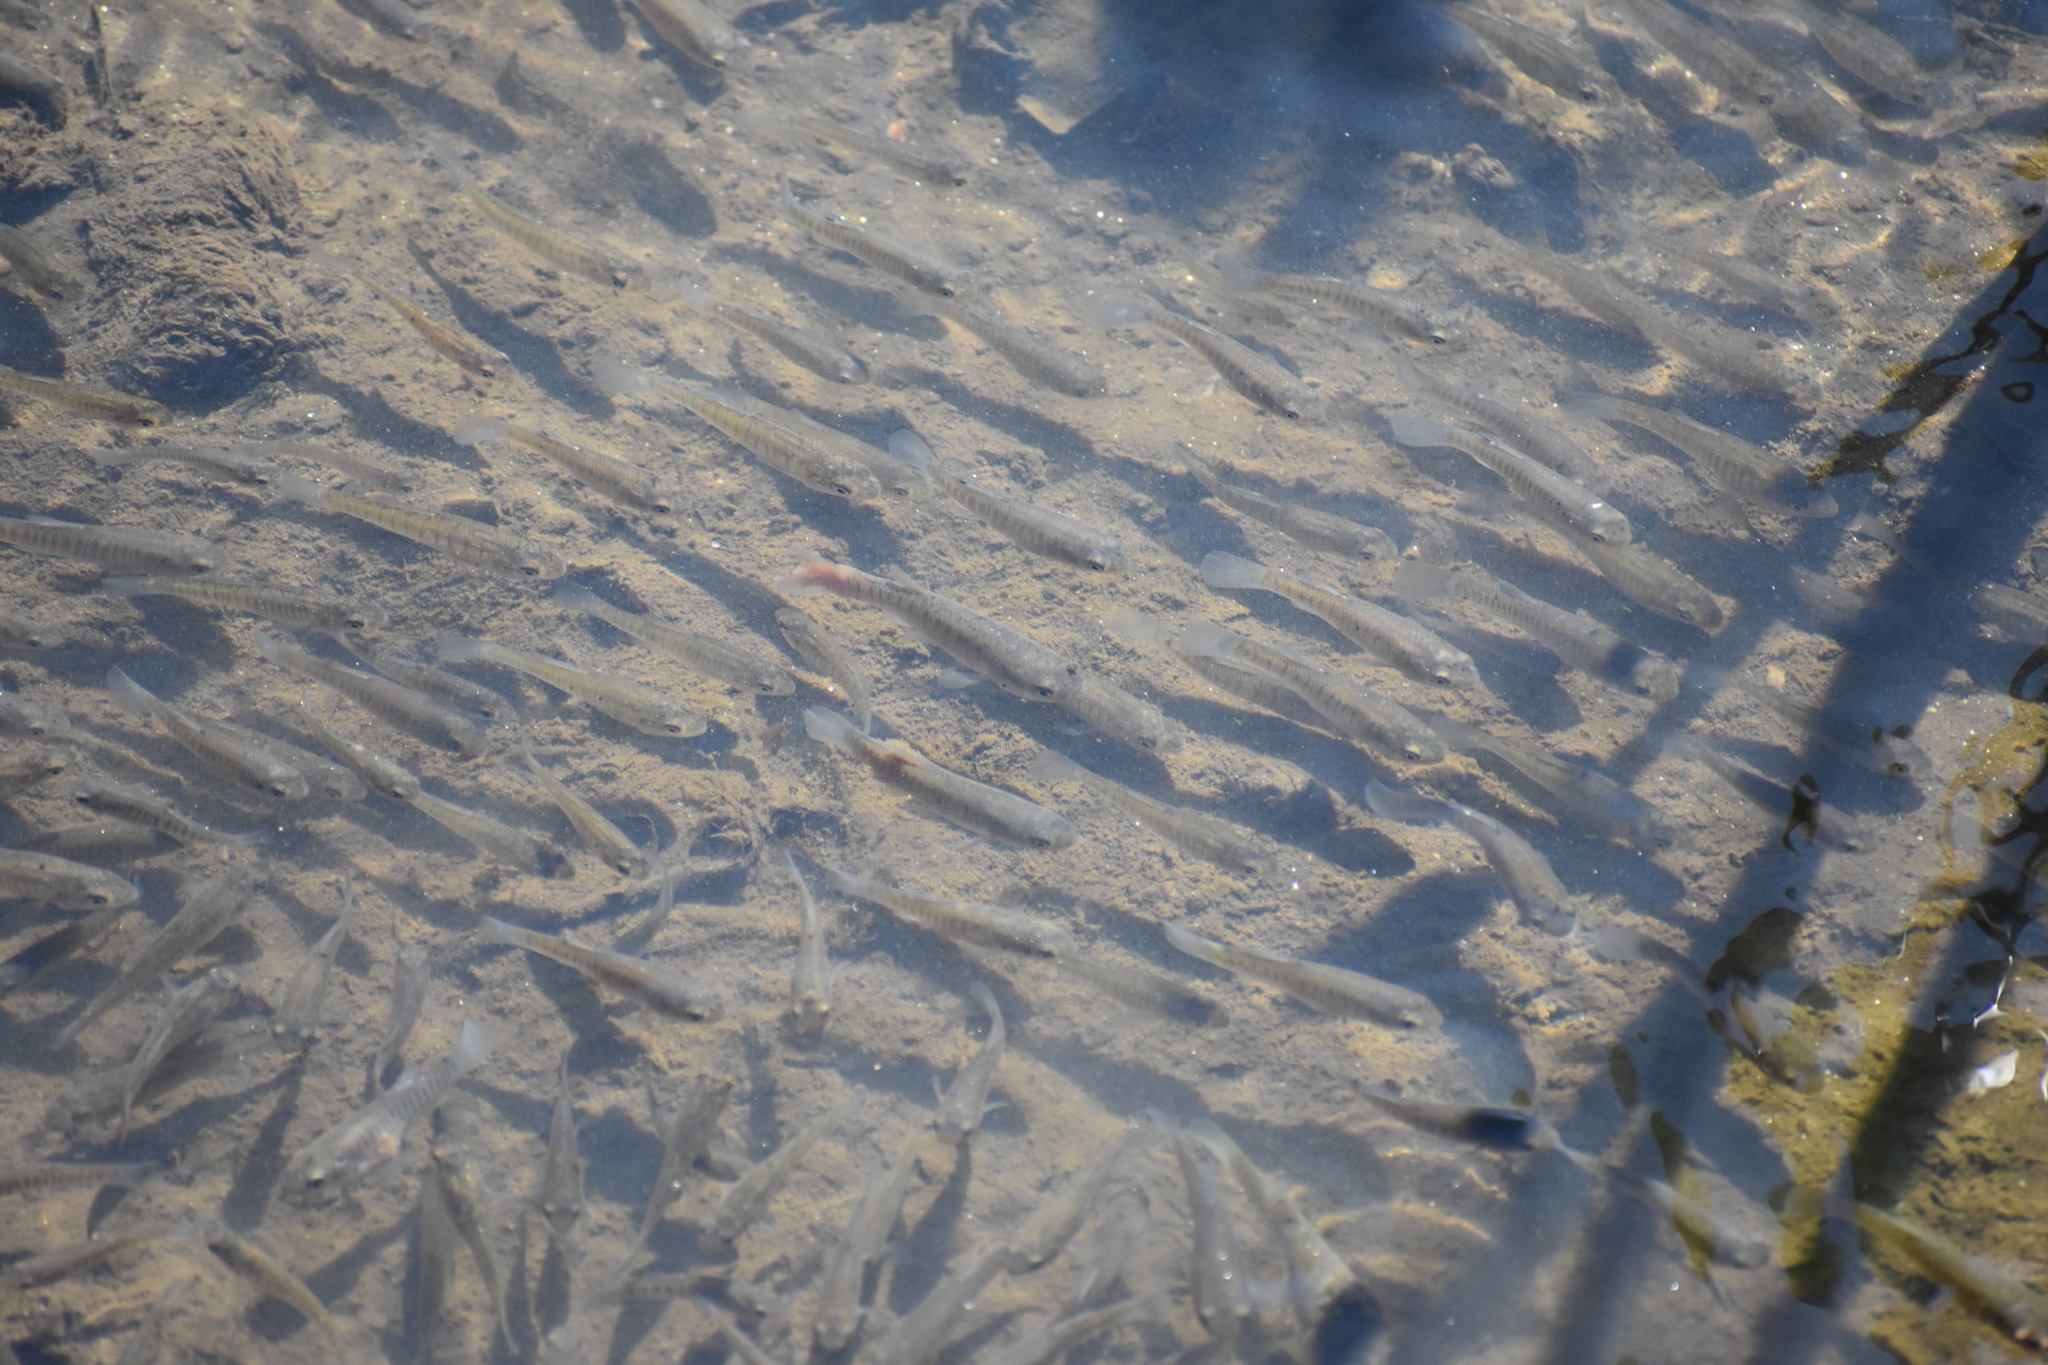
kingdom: Animalia
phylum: Chordata
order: Cyprinodontiformes
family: Fundulidae
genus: Fundulus
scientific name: Fundulus heteroclitus
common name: Mummichog
